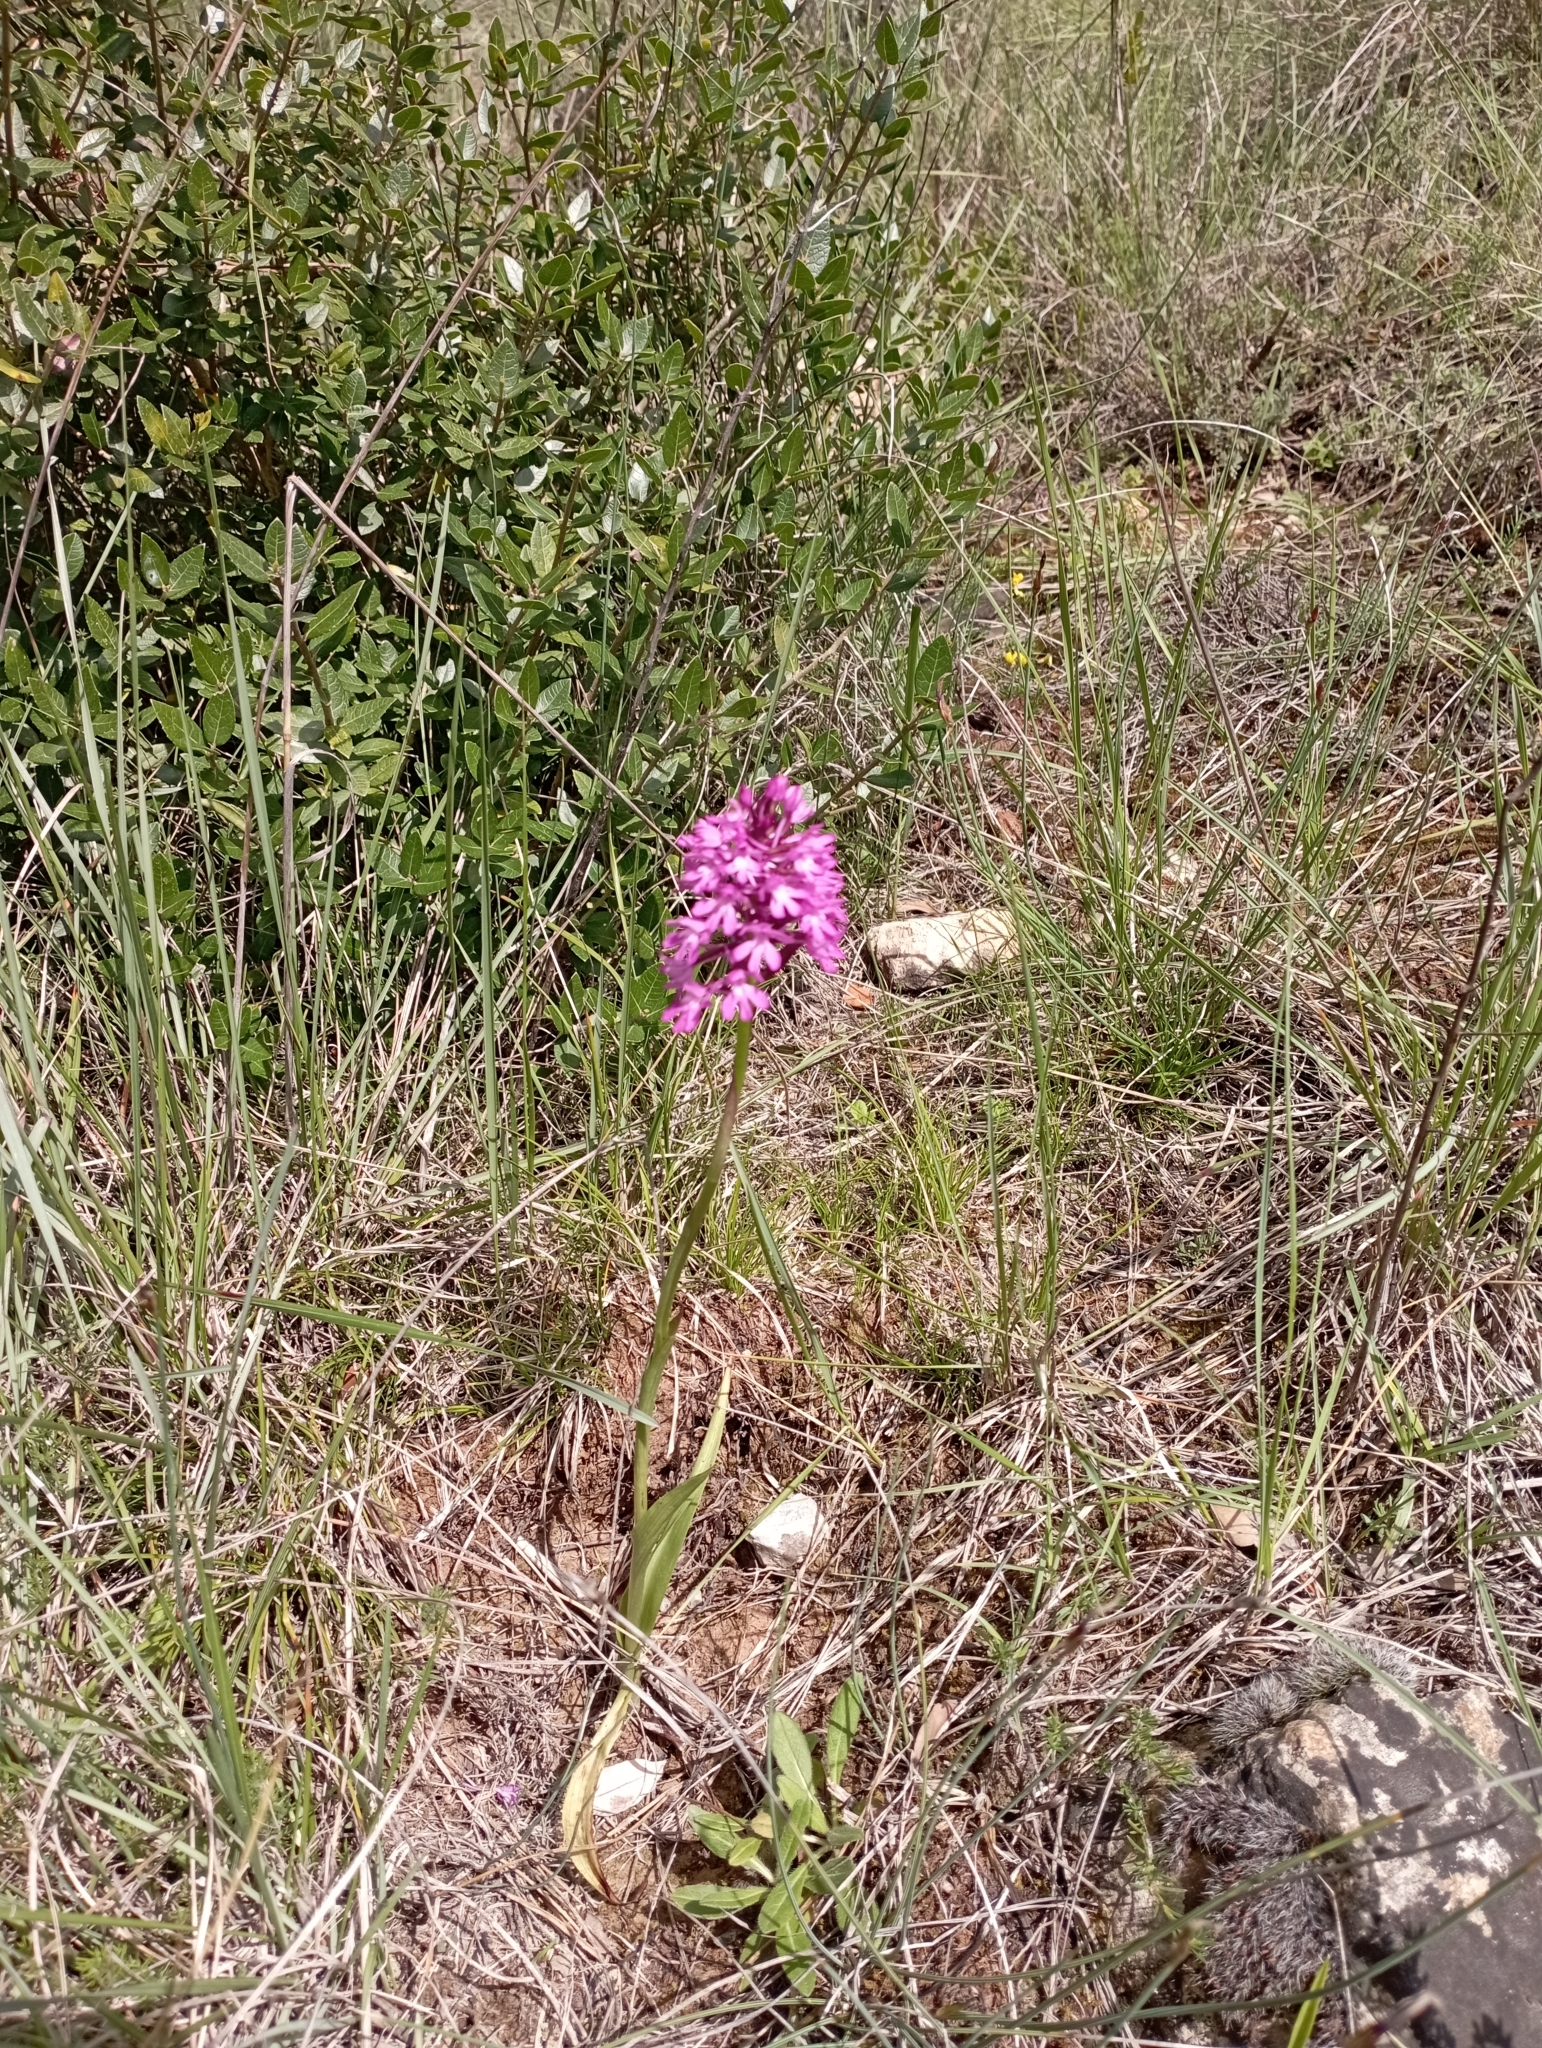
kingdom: Plantae
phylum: Tracheophyta
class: Liliopsida
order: Asparagales
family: Orchidaceae
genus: Anacamptis
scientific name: Anacamptis pyramidalis
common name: Pyramidal orchid
